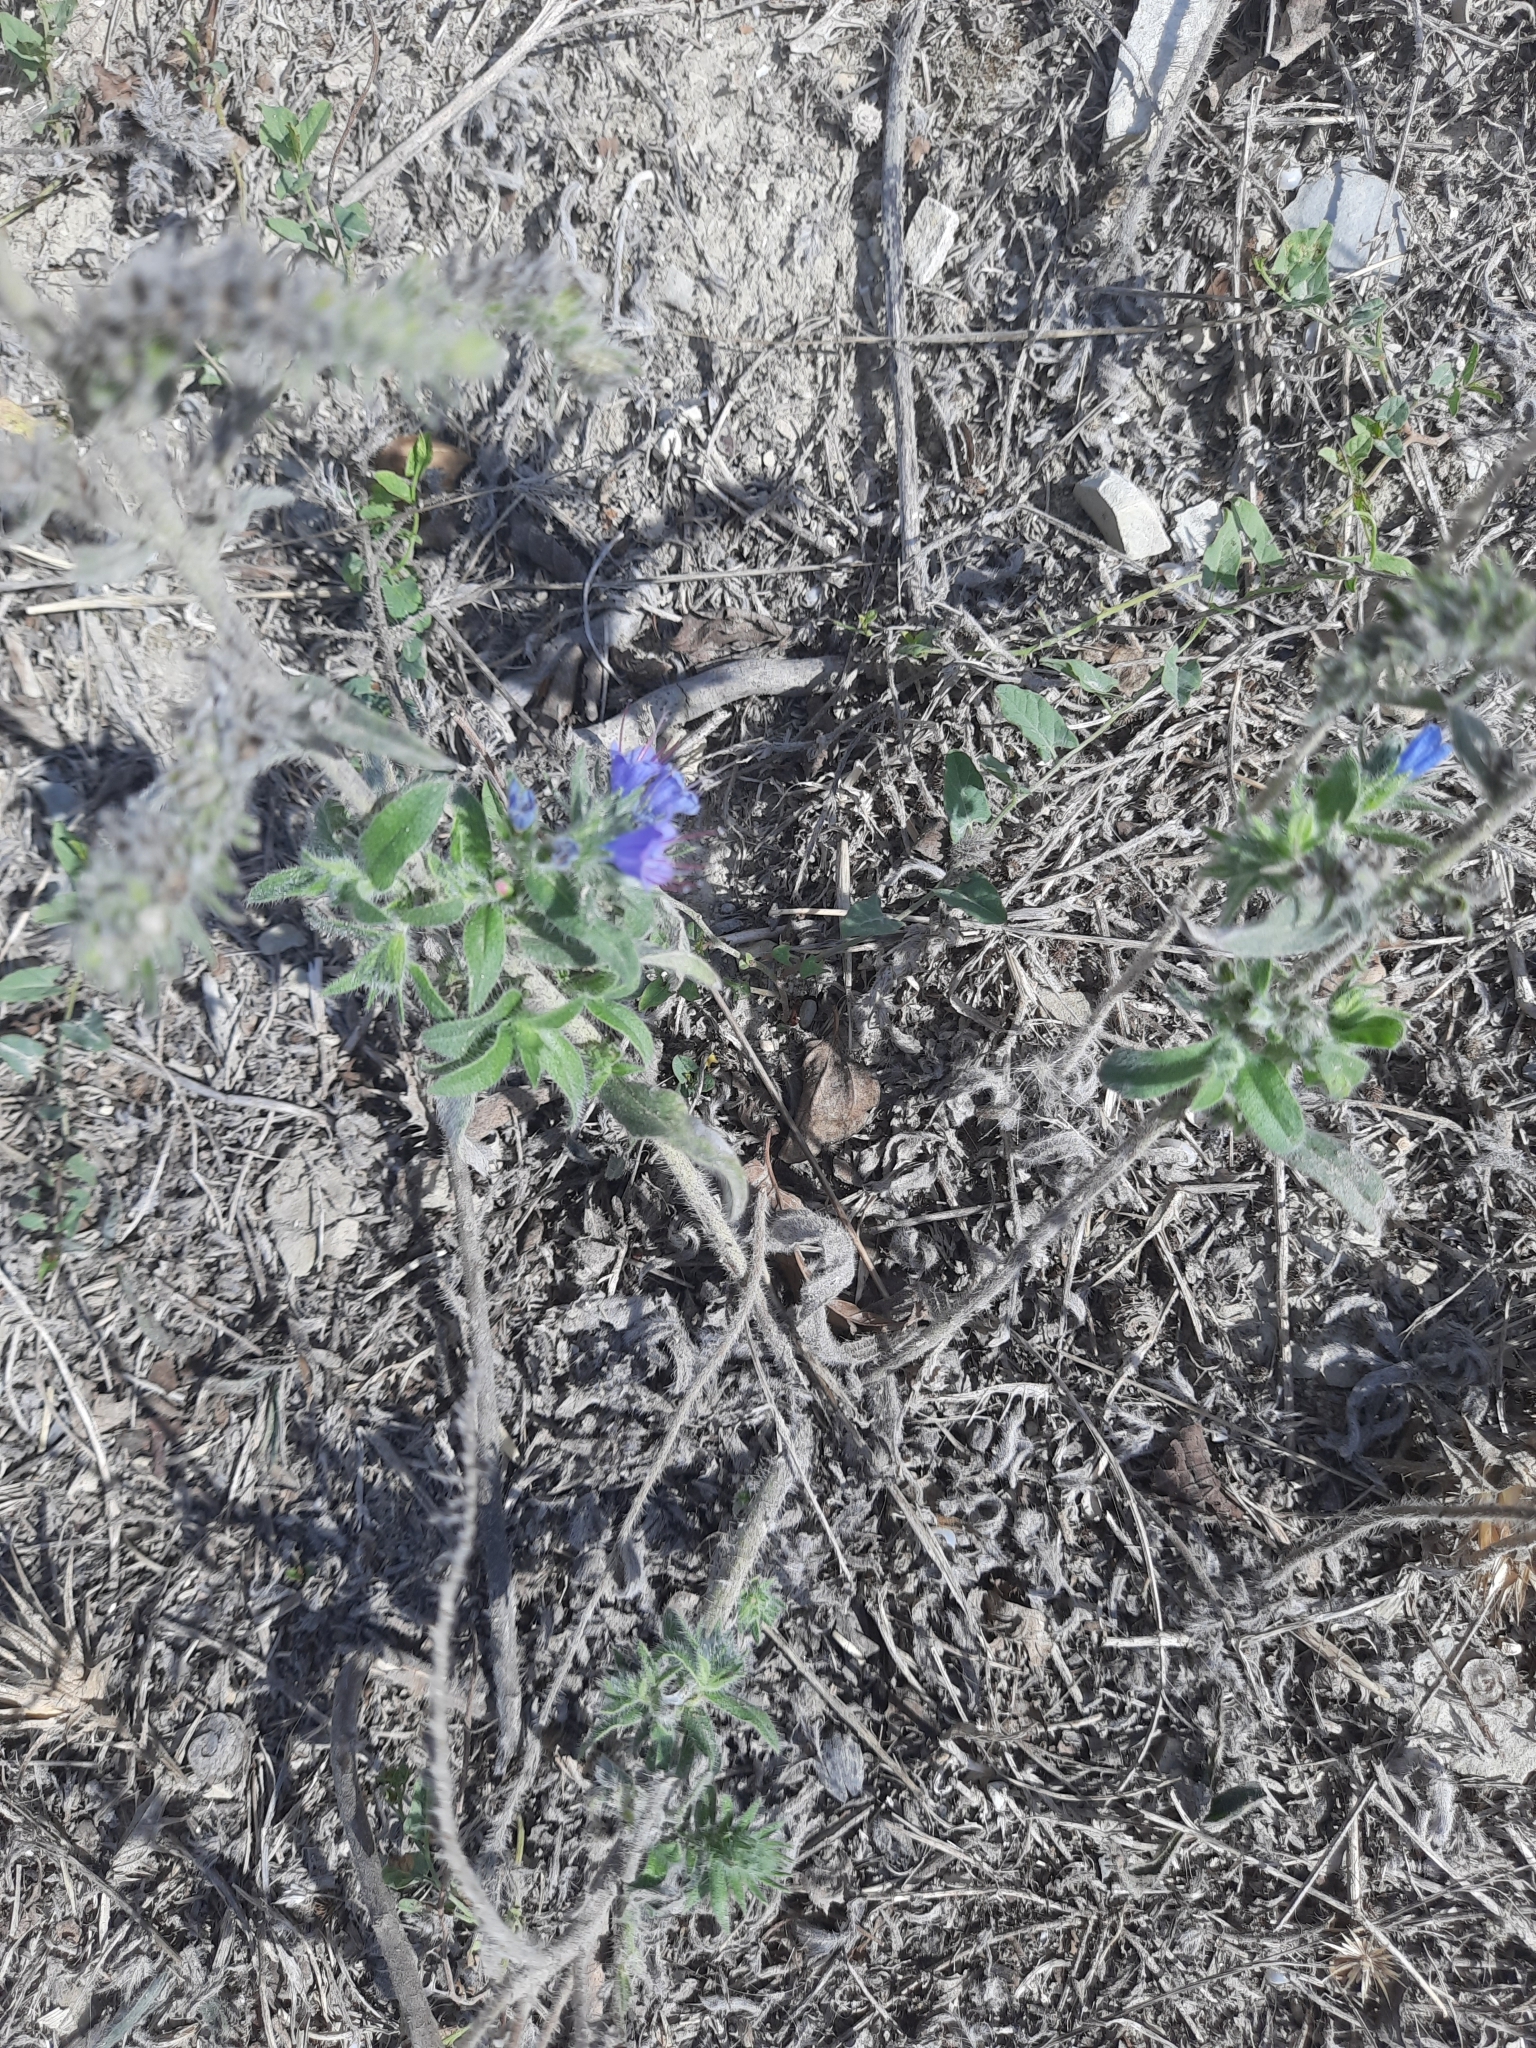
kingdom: Plantae
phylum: Tracheophyta
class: Magnoliopsida
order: Boraginales
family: Boraginaceae
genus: Echium
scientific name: Echium vulgare
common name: Common viper's bugloss
